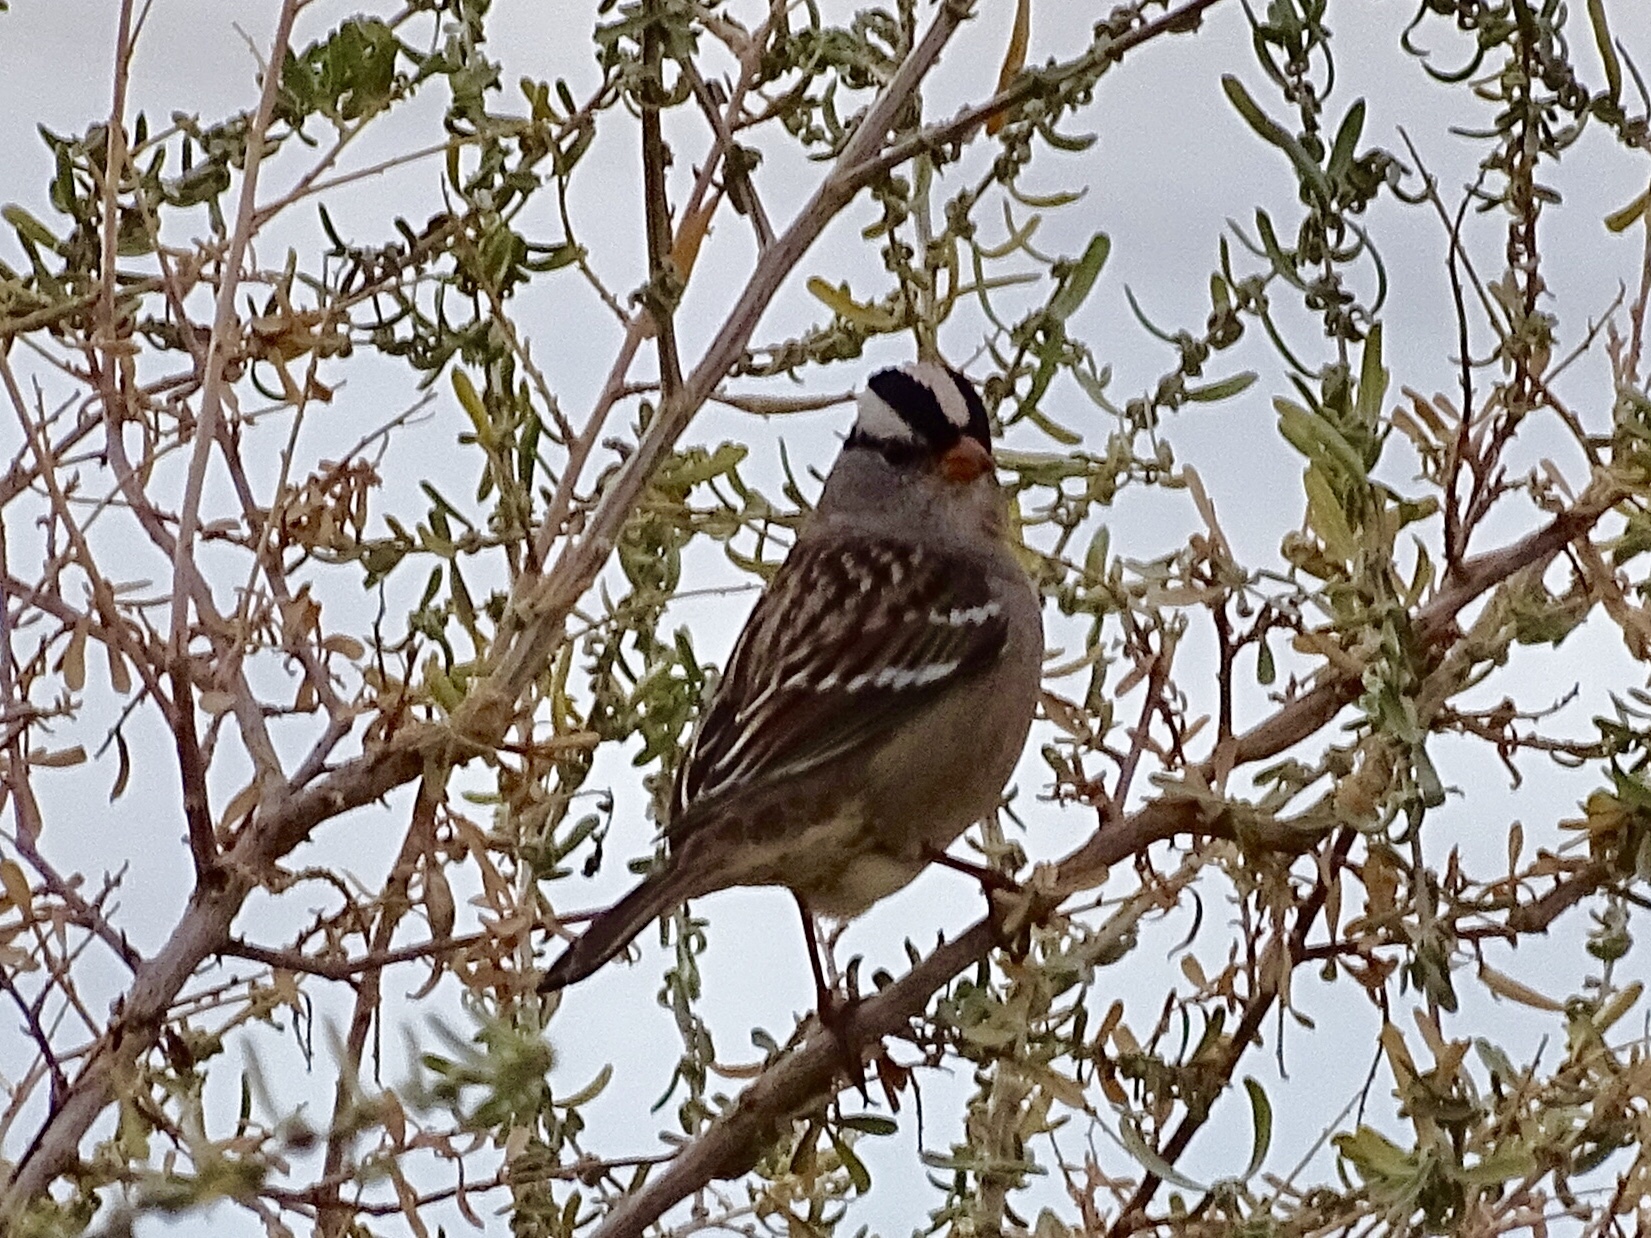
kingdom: Animalia
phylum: Chordata
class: Aves
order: Passeriformes
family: Passerellidae
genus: Zonotrichia
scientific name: Zonotrichia leucophrys
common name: White-crowned sparrow
